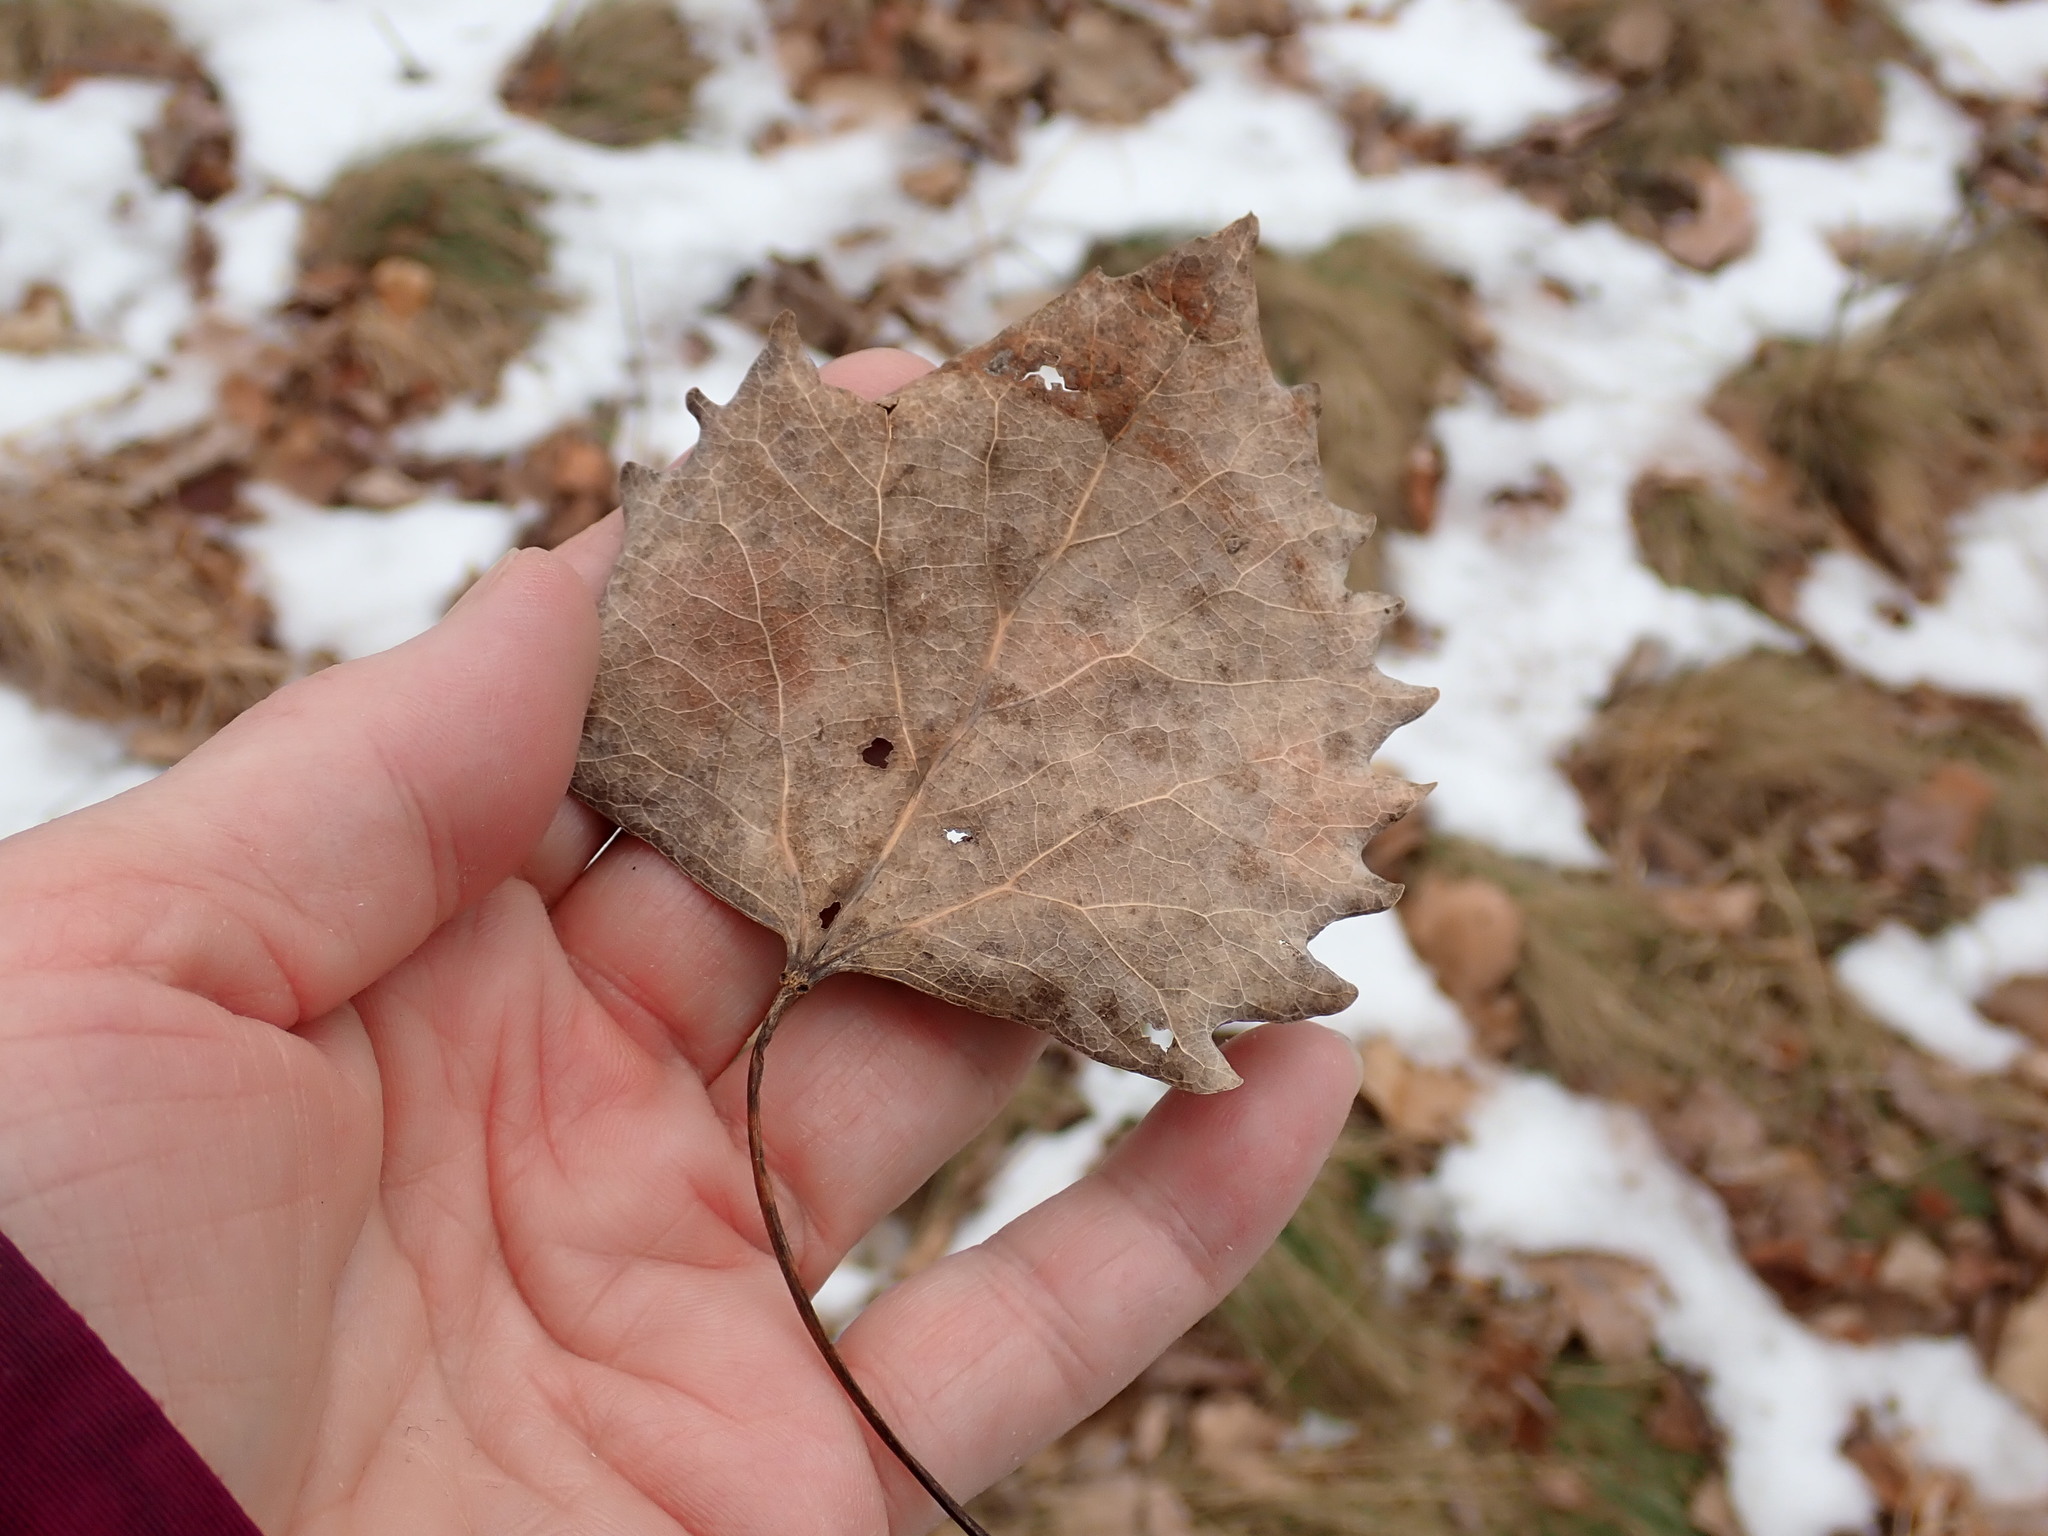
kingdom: Plantae
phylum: Tracheophyta
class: Magnoliopsida
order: Malpighiales
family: Salicaceae
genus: Populus
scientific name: Populus deltoides
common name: Eastern cottonwood
